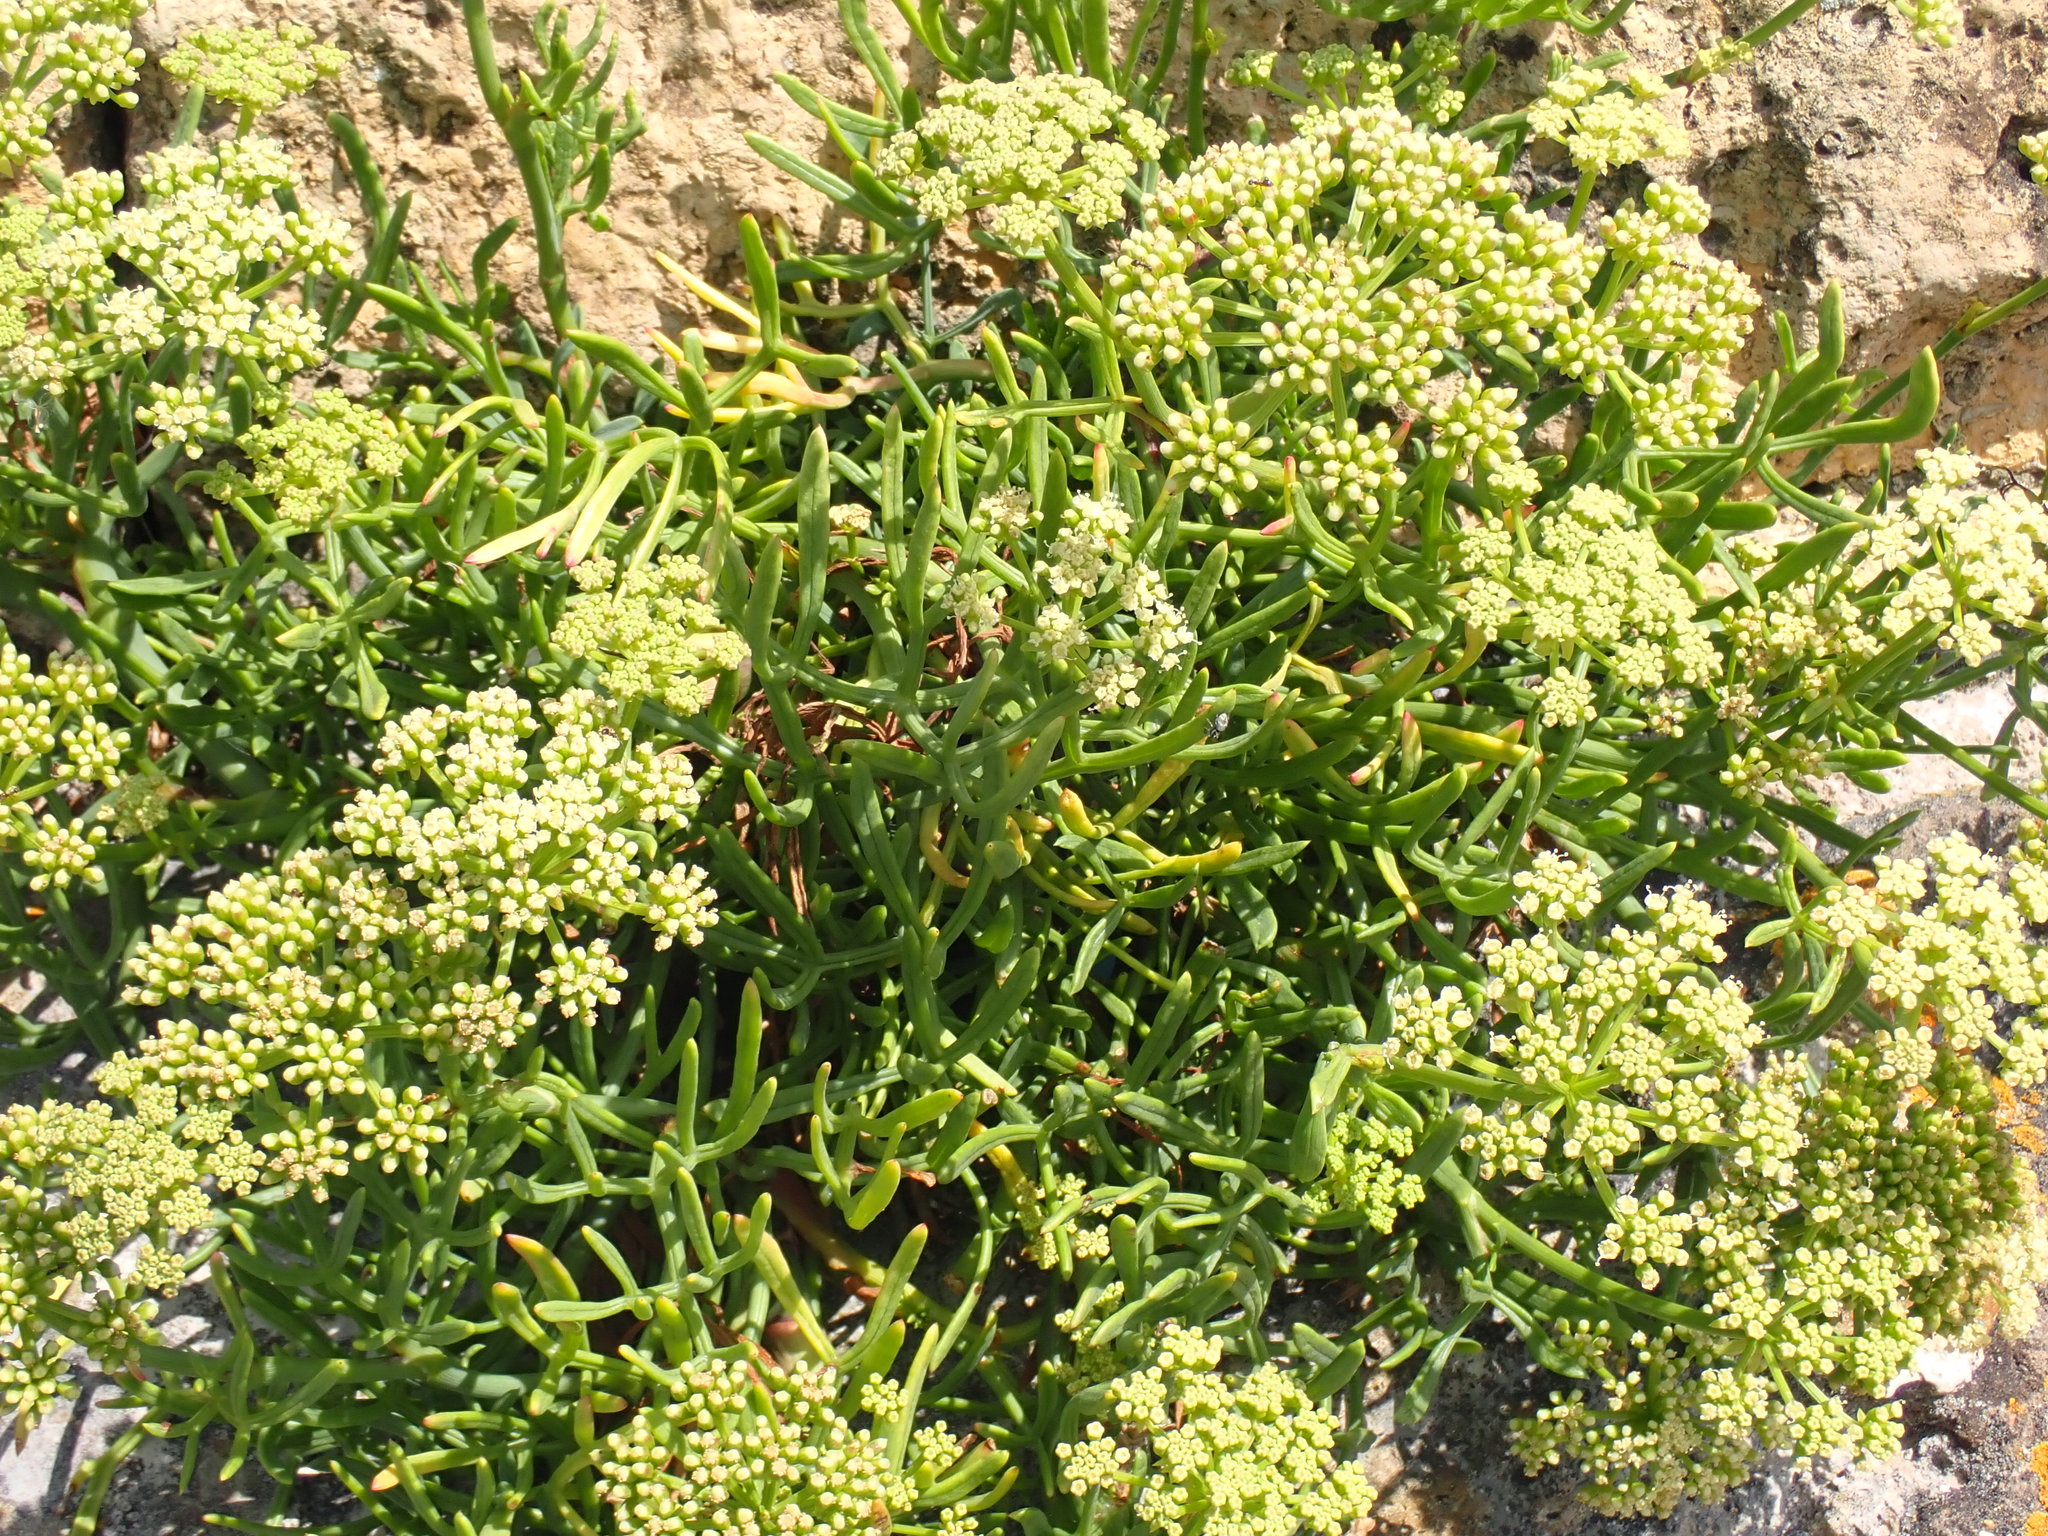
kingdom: Plantae
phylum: Tracheophyta
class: Magnoliopsida
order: Apiales
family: Apiaceae
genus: Crithmum
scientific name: Crithmum maritimum
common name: Rock samphire
